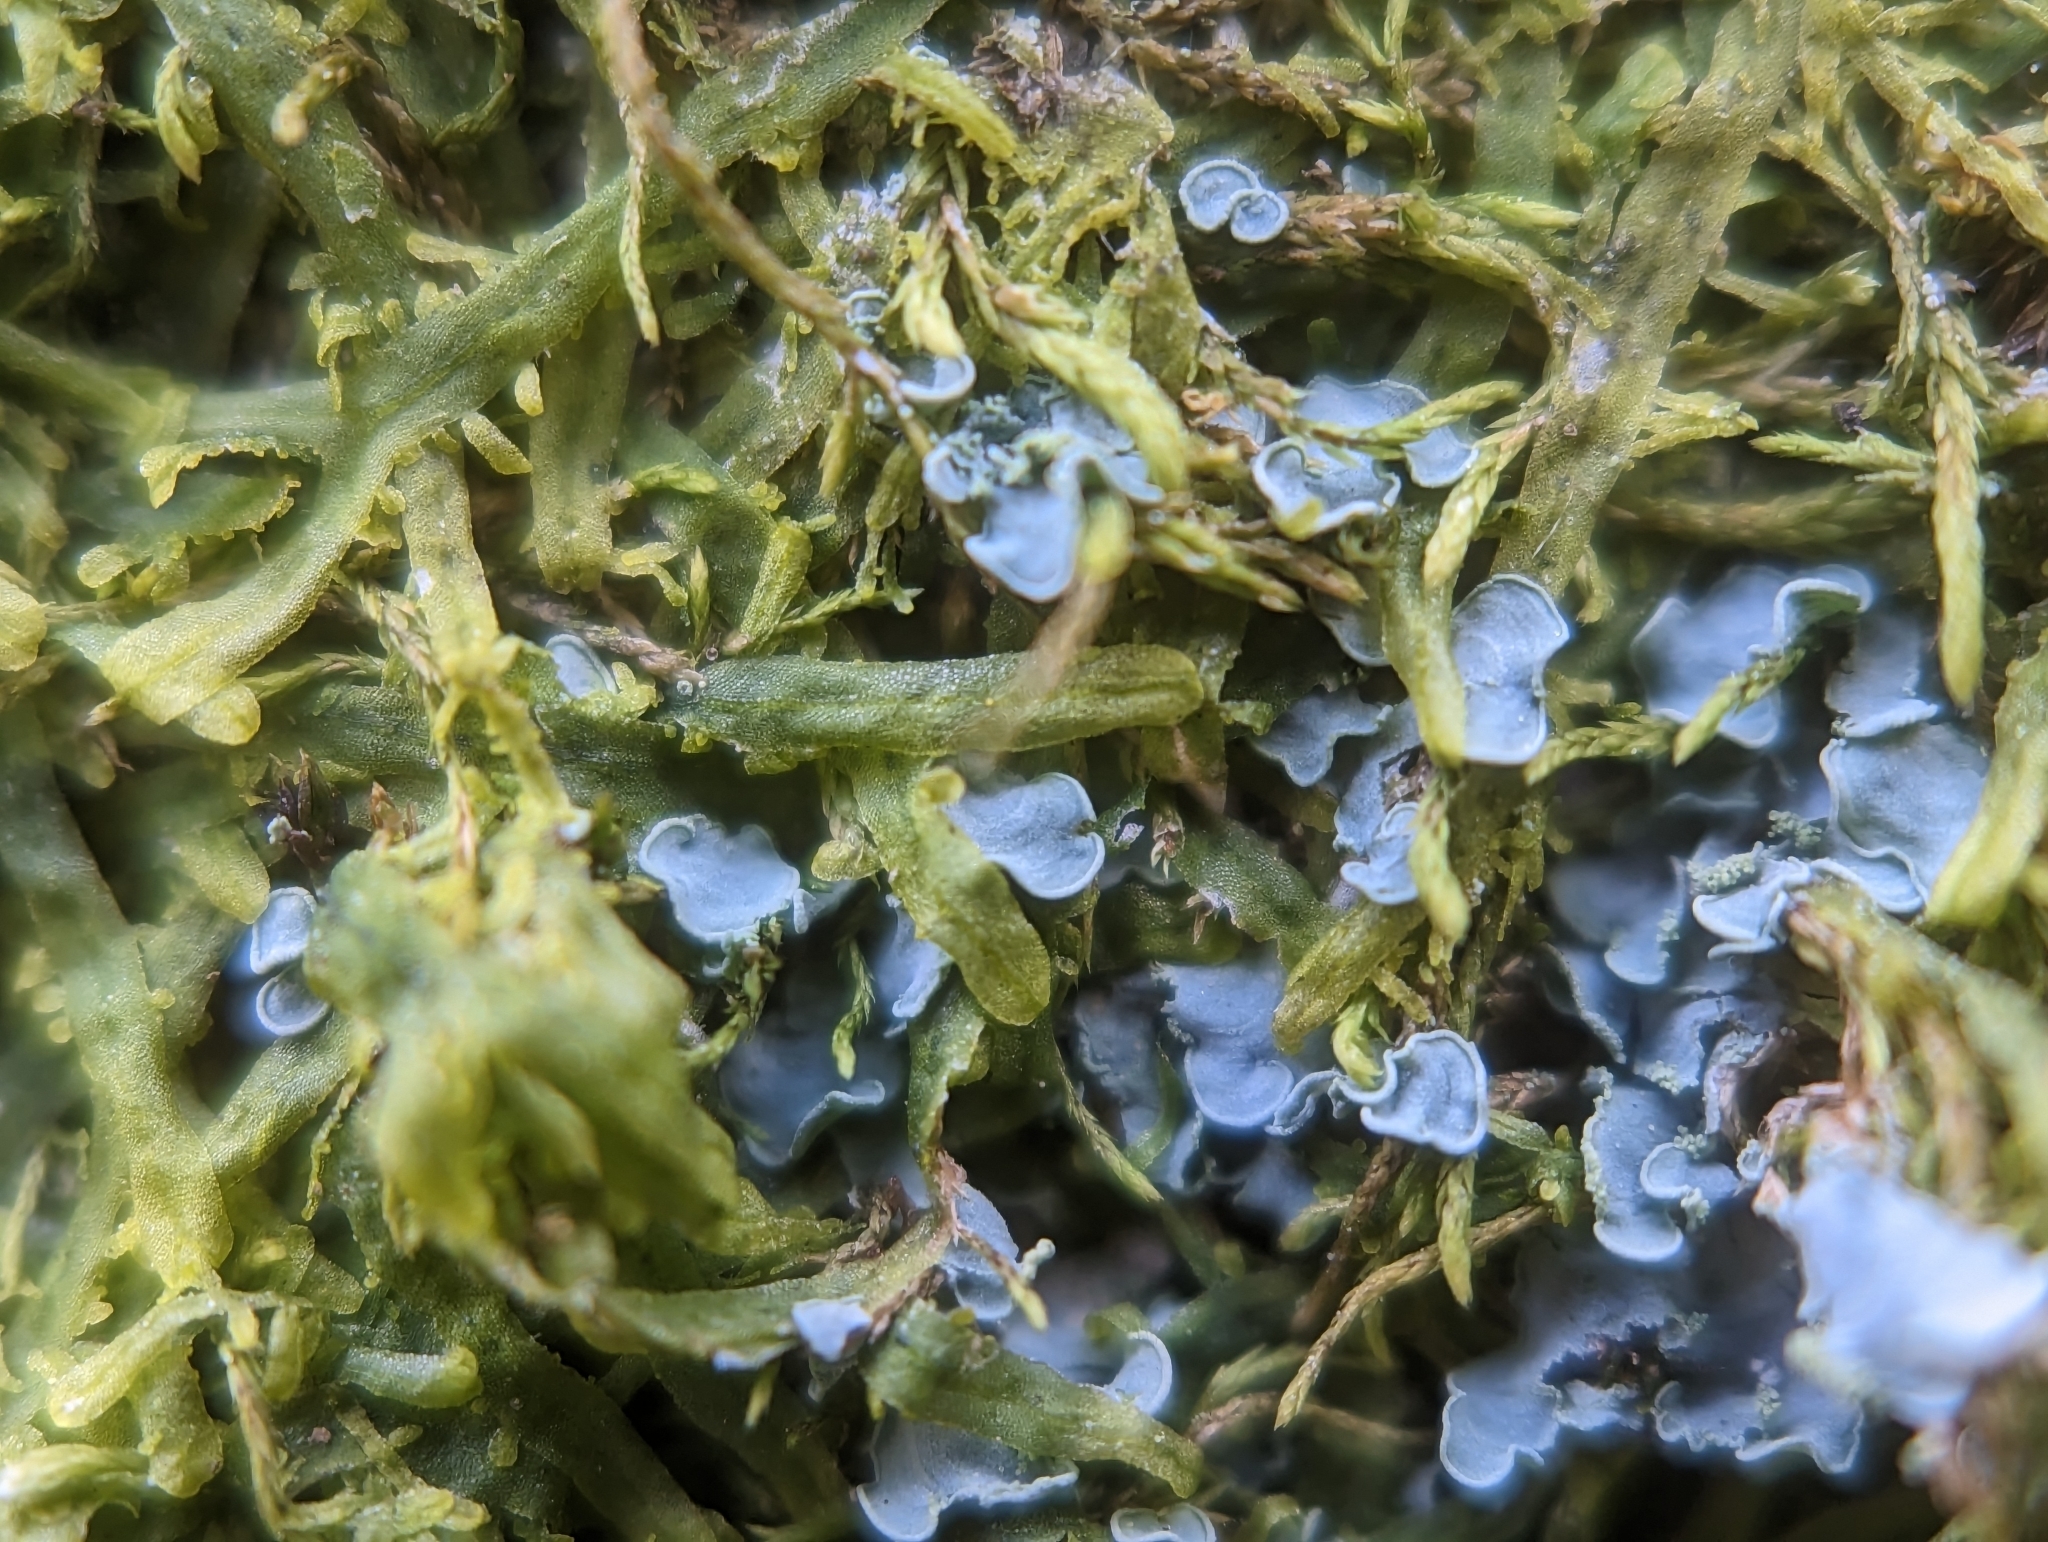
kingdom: Fungi
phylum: Ascomycota
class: Eurotiomycetes
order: Verrucariales
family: Verrucariaceae
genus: Normandina
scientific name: Normandina pulchella
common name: Elf ears lichen
